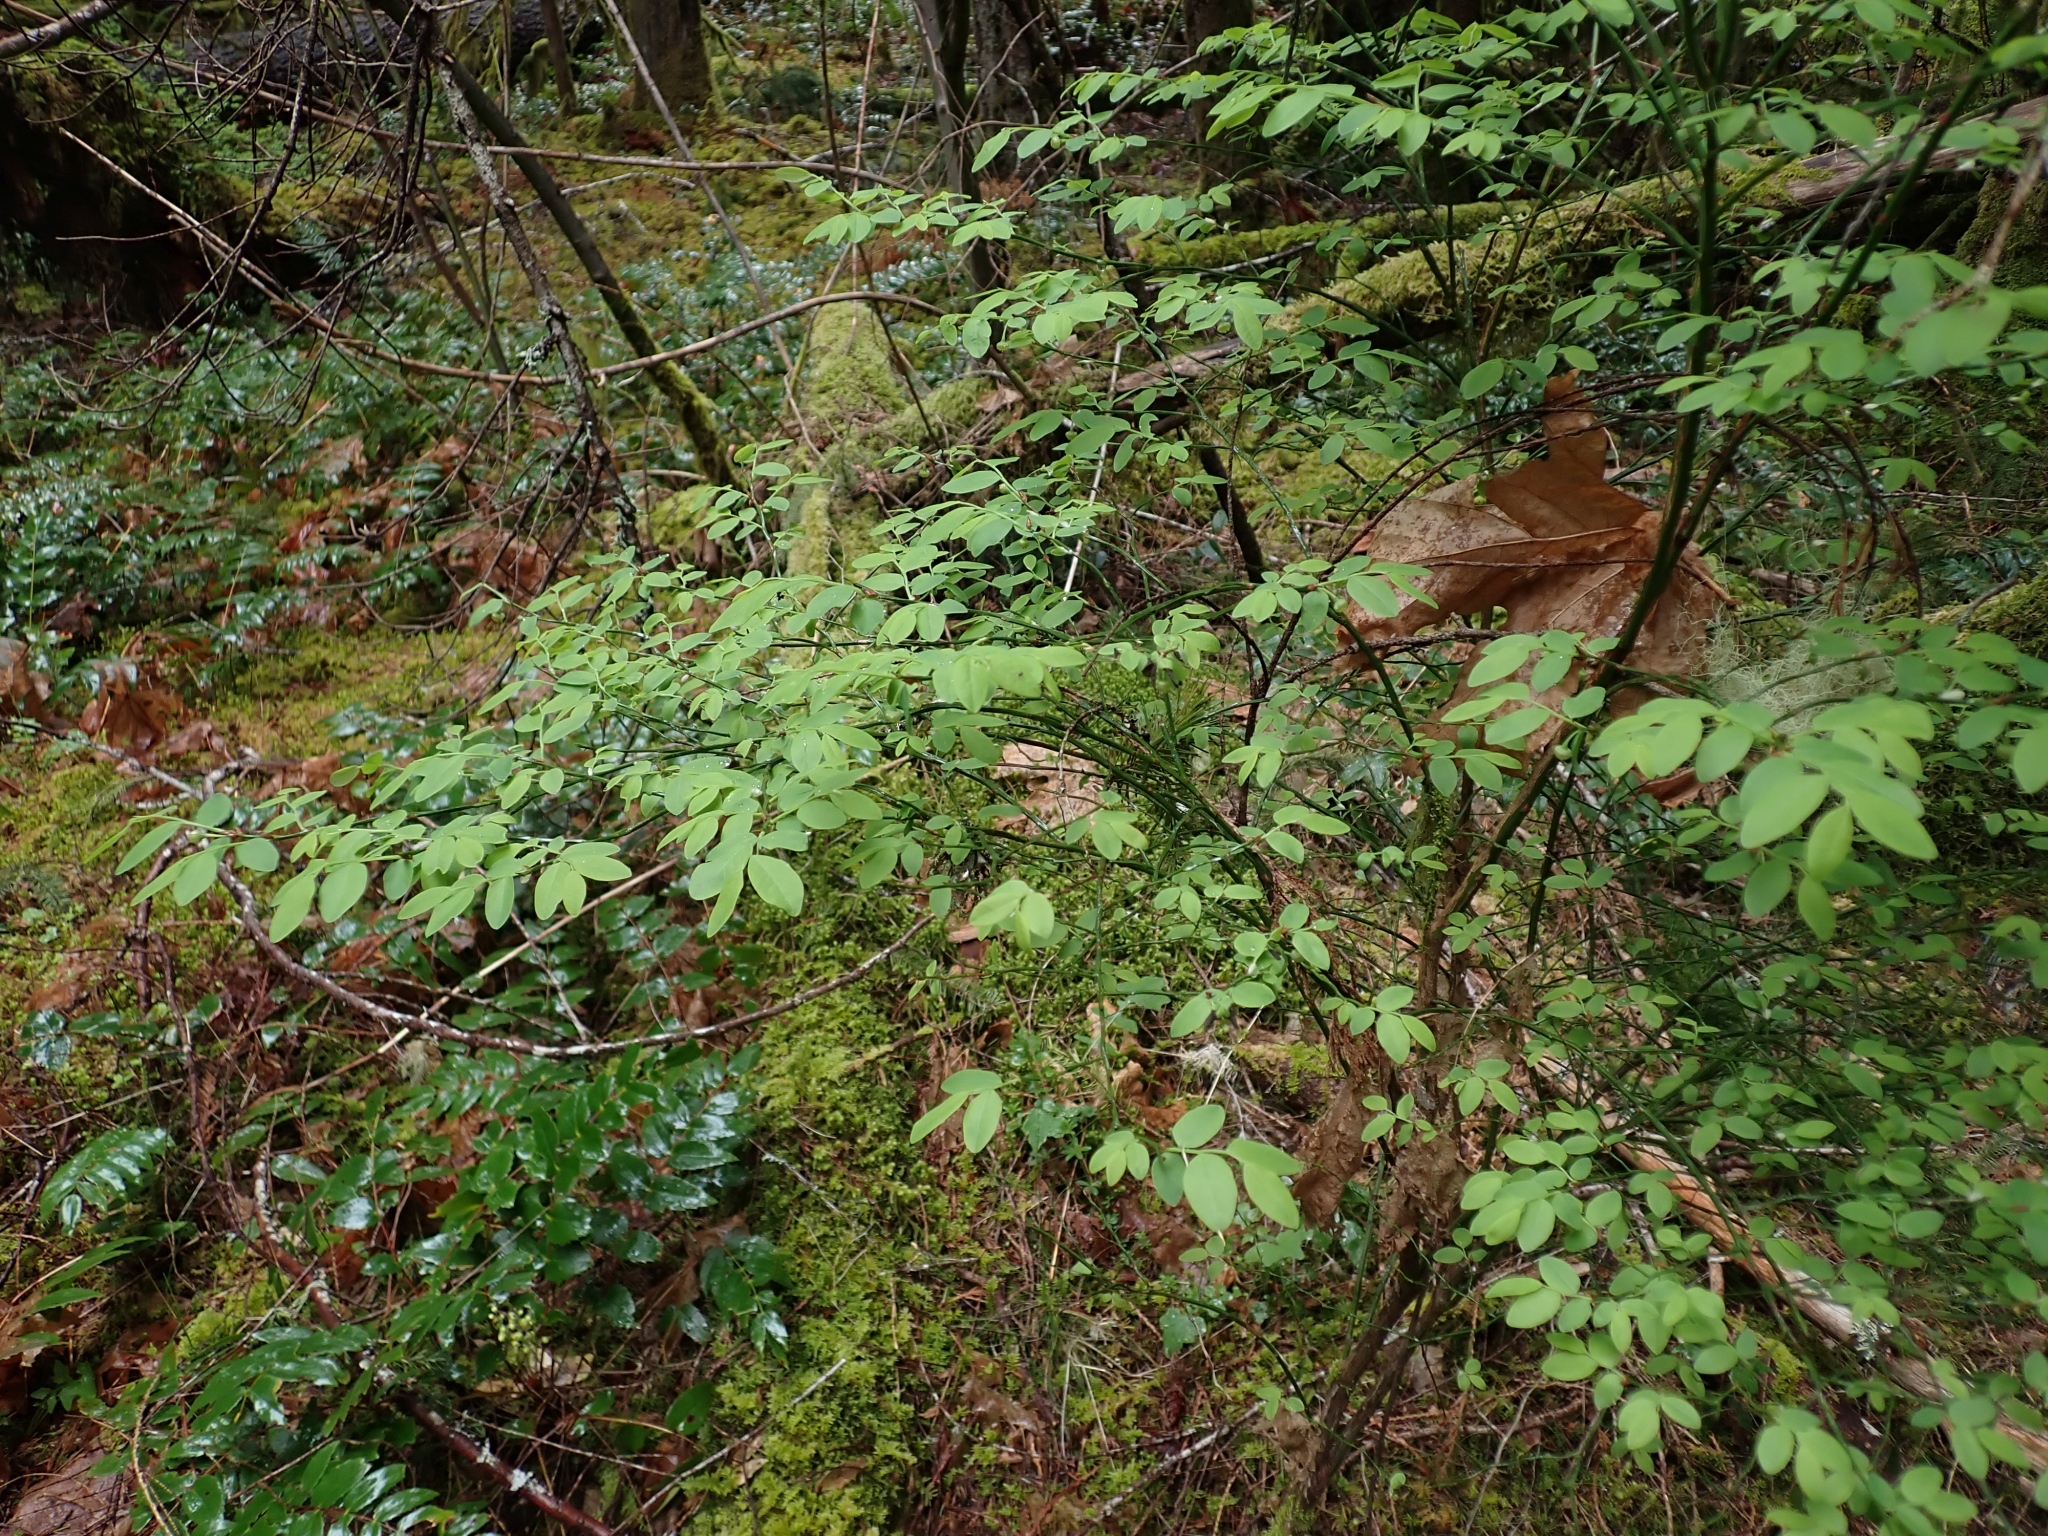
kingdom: Plantae
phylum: Tracheophyta
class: Magnoliopsida
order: Ericales
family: Ericaceae
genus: Vaccinium
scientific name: Vaccinium parvifolium
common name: Red-huckleberry
